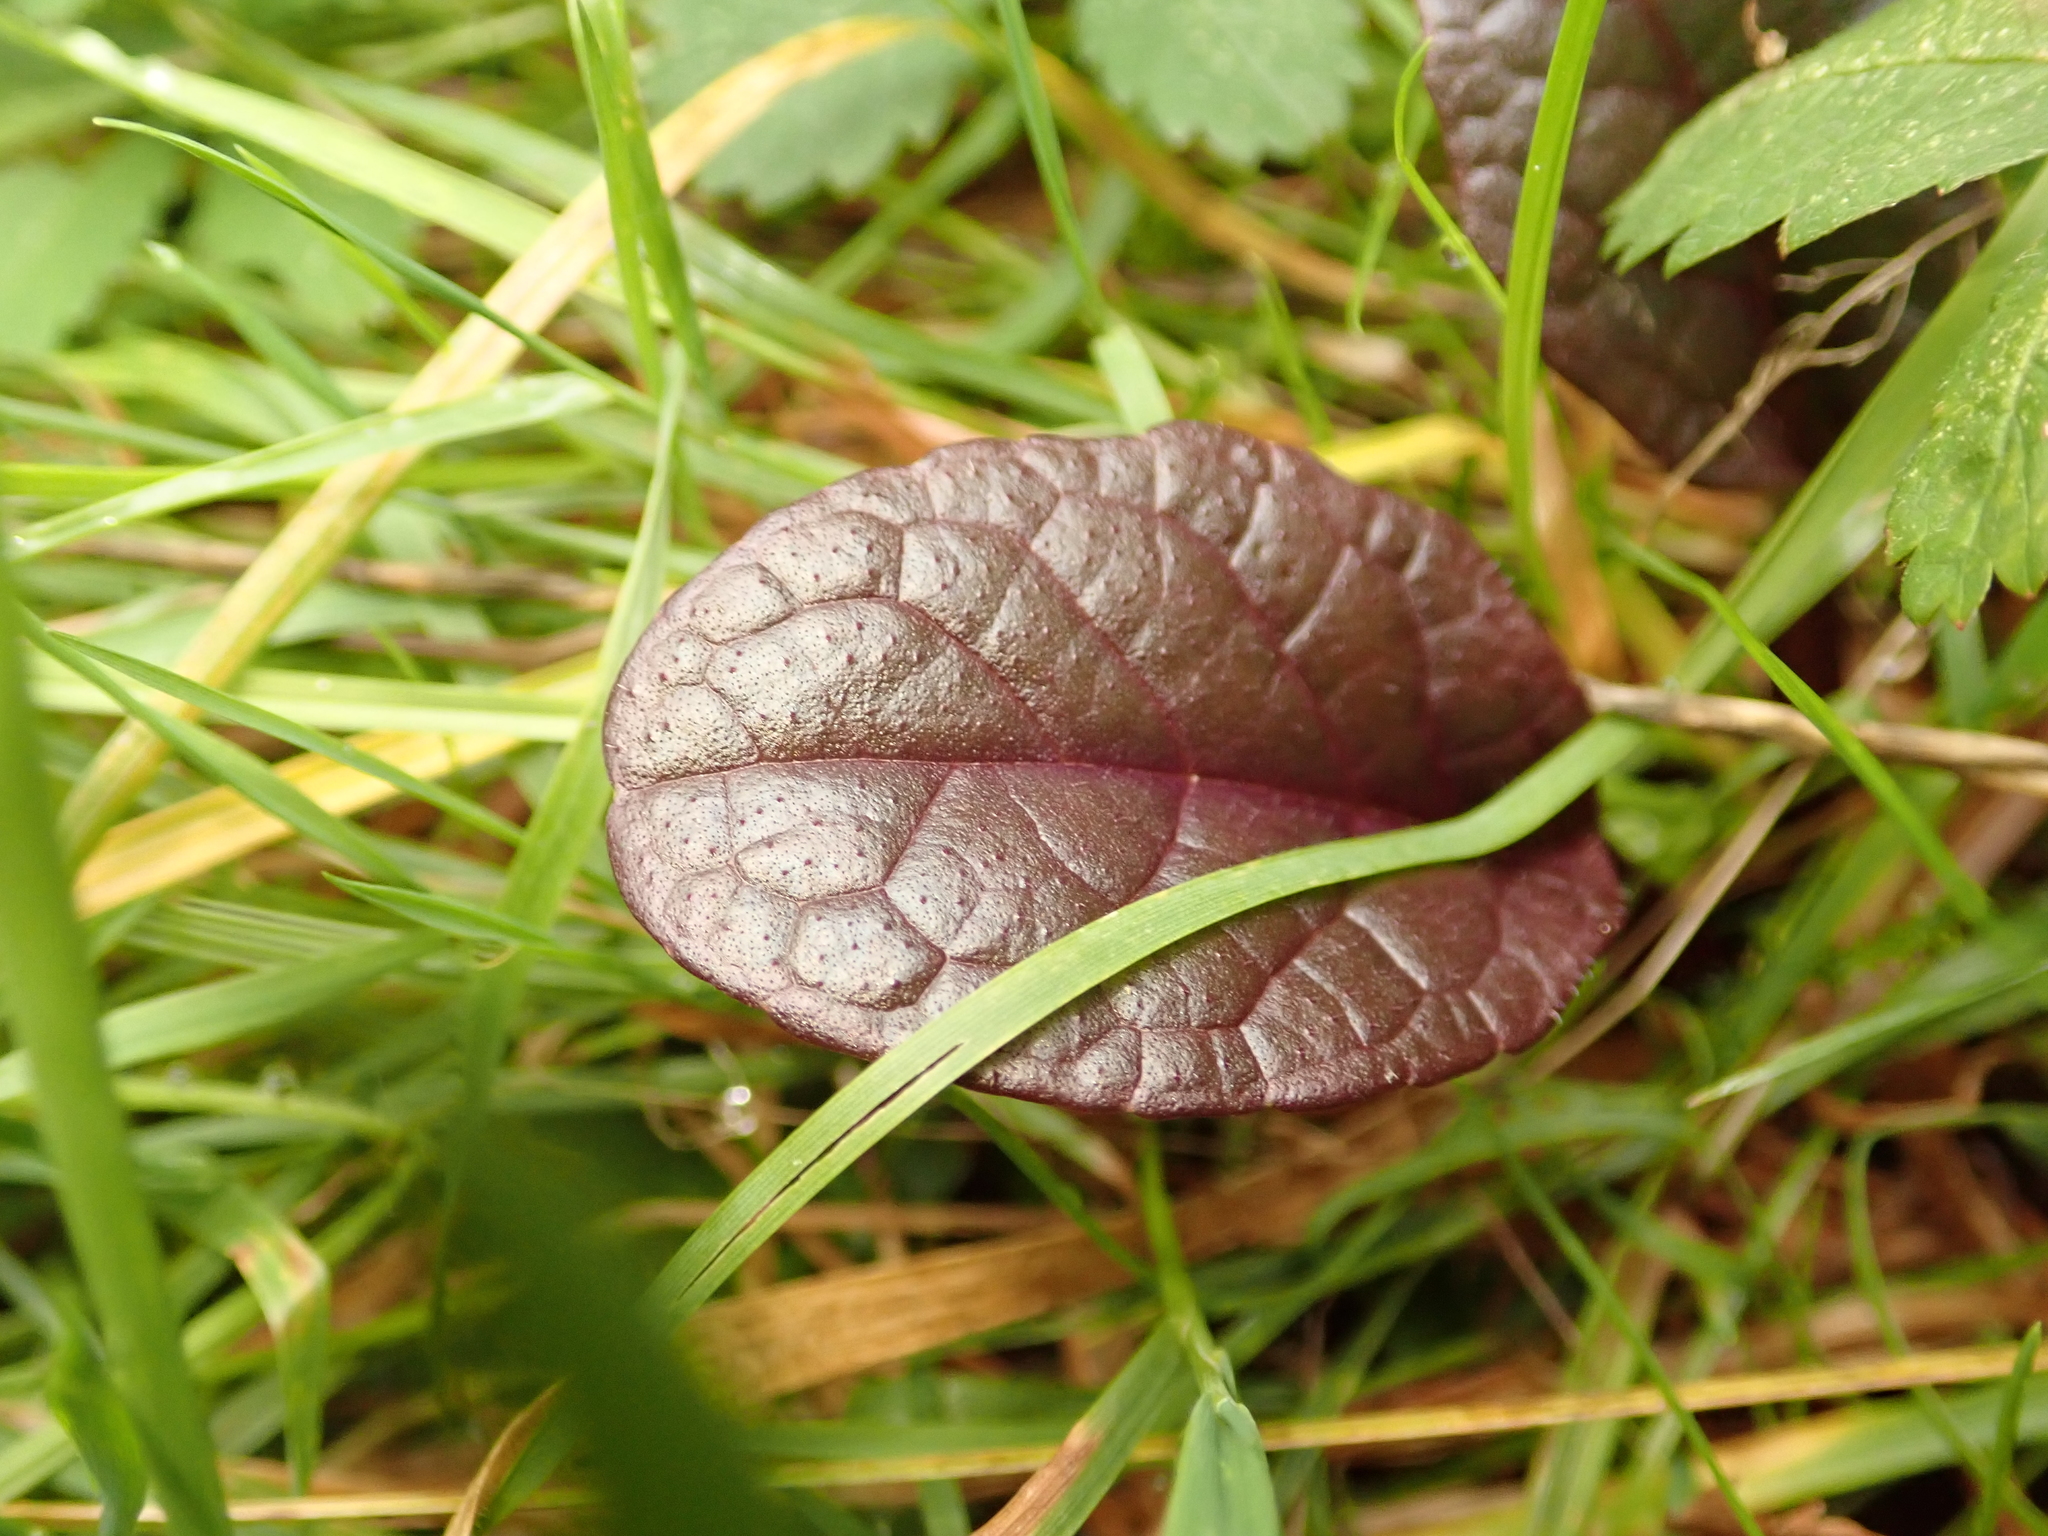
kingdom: Plantae
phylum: Tracheophyta
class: Magnoliopsida
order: Lamiales
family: Lamiaceae
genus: Ajuga
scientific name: Ajuga reptans
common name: Bugle
